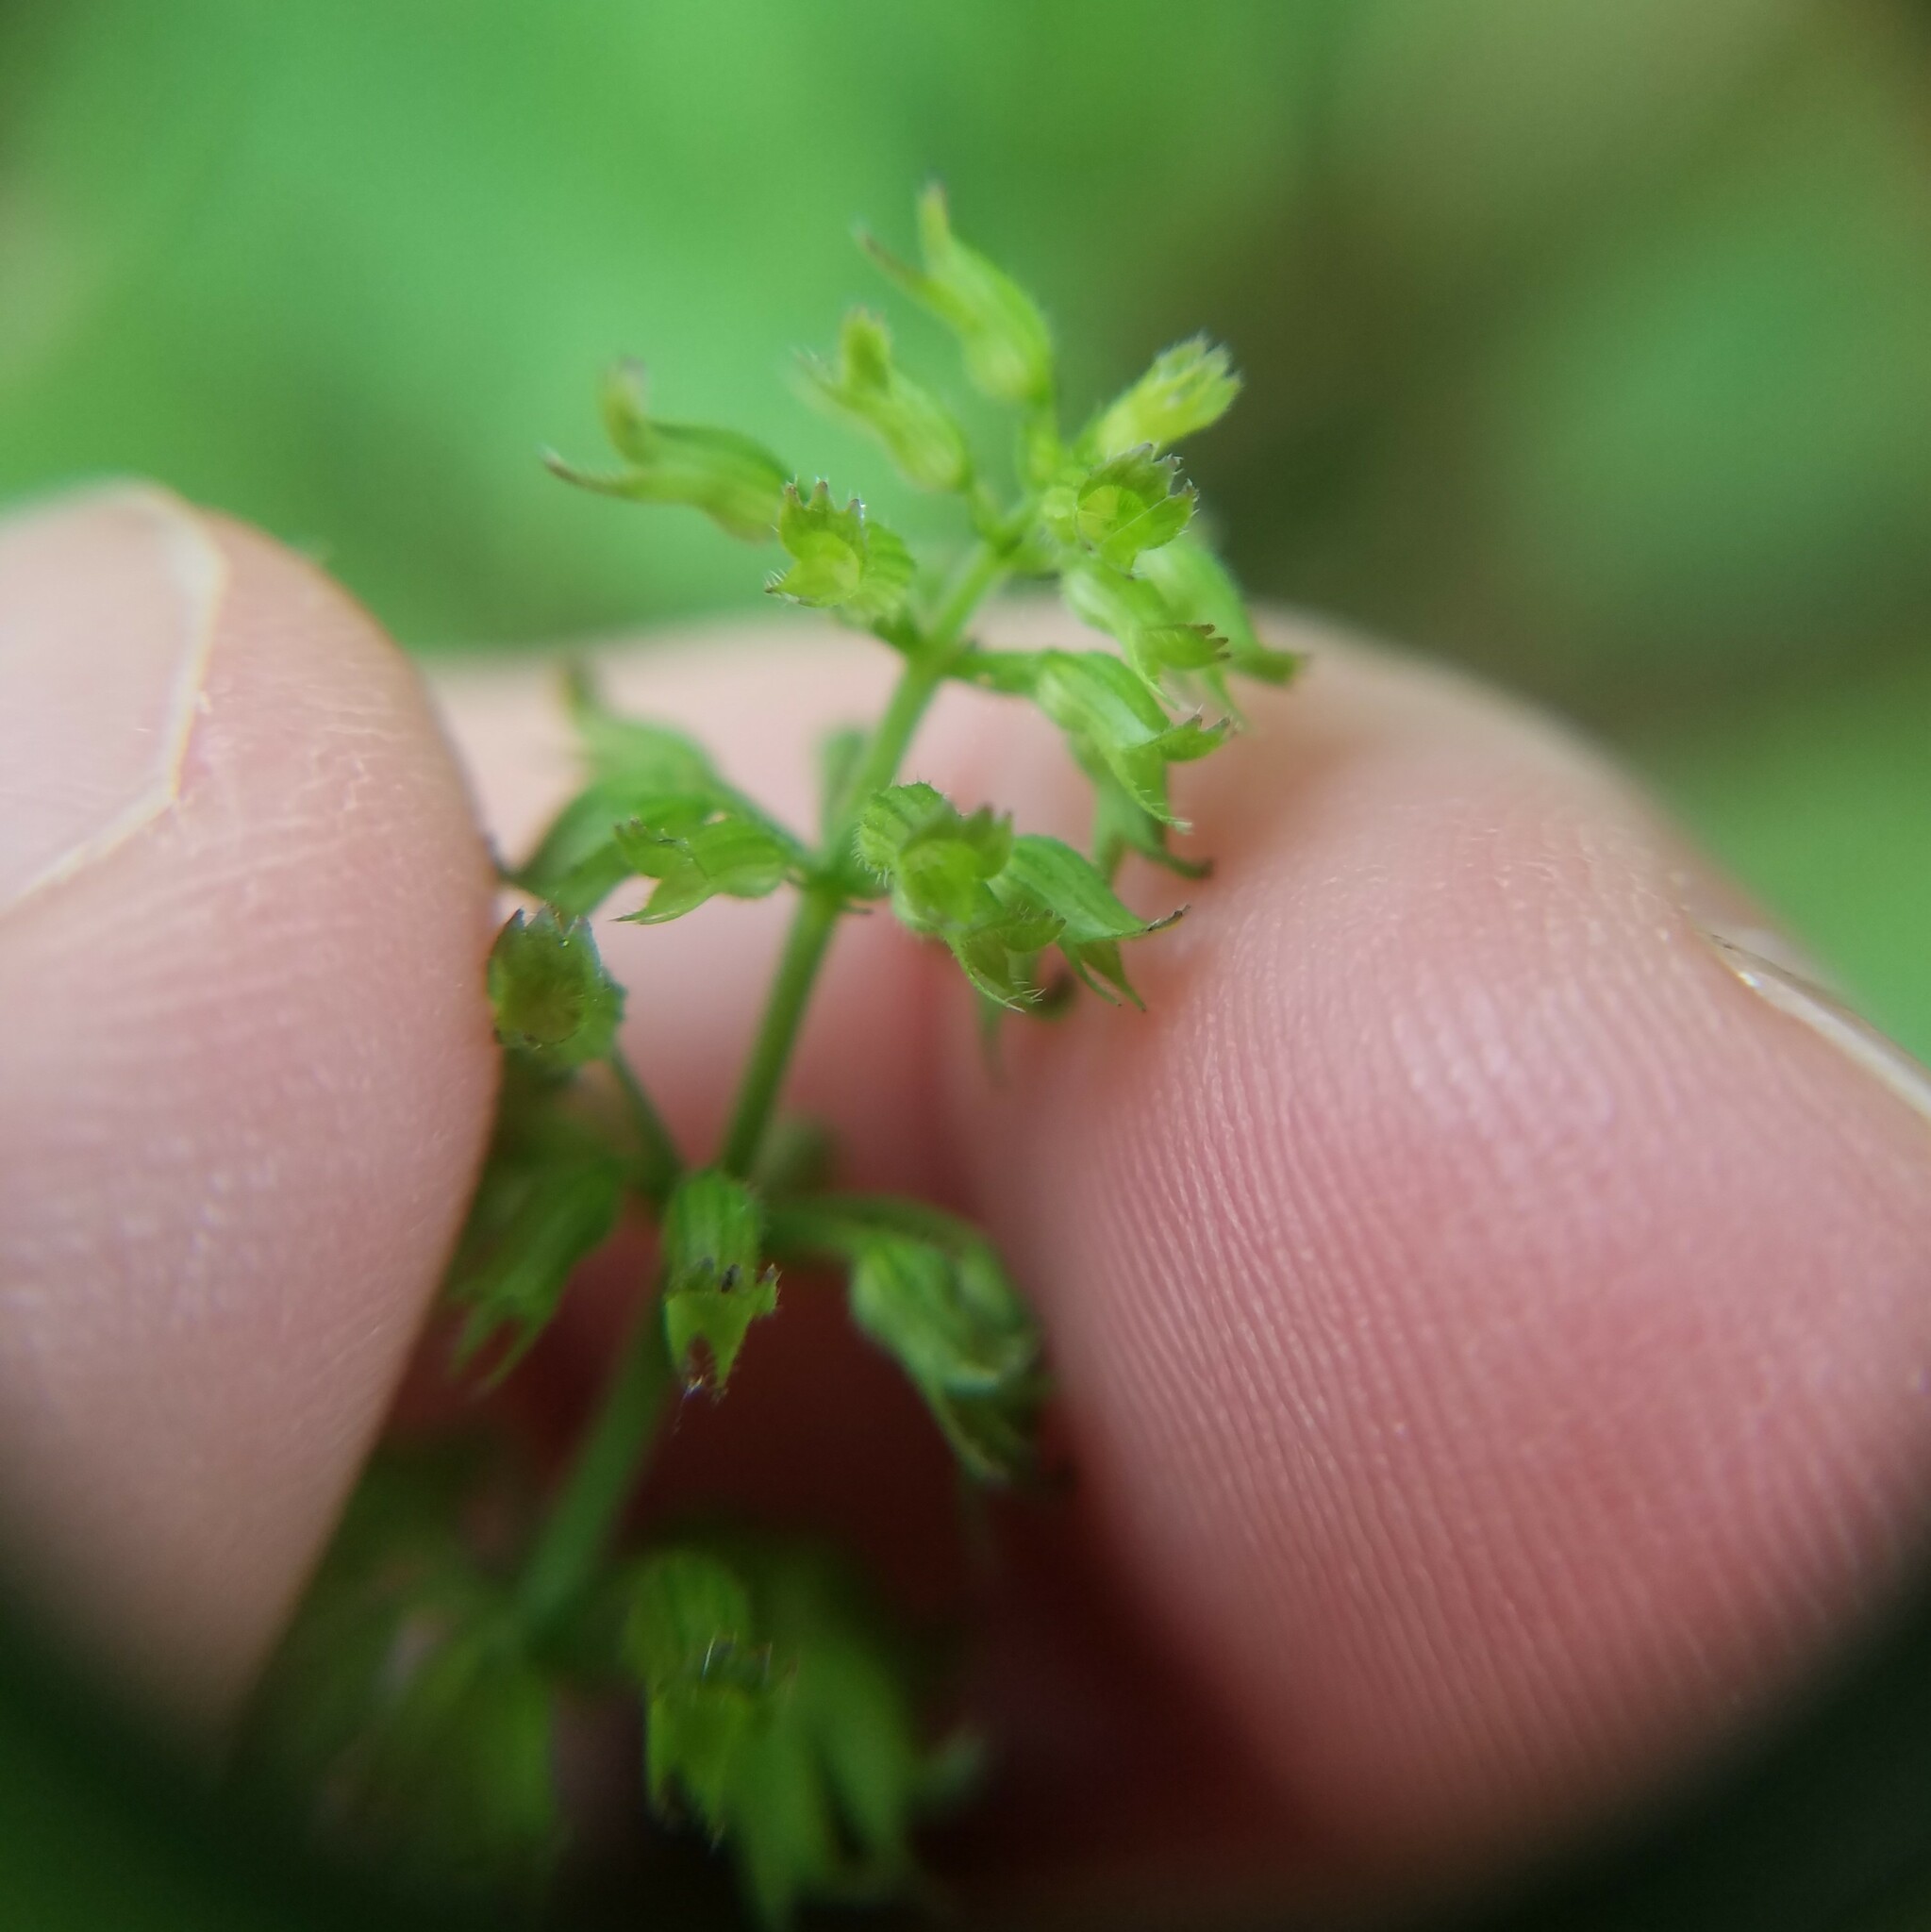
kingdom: Plantae
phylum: Tracheophyta
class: Magnoliopsida
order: Lamiales
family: Lamiaceae
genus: Clinopodium
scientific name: Clinopodium gracile
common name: Slender wild basil
